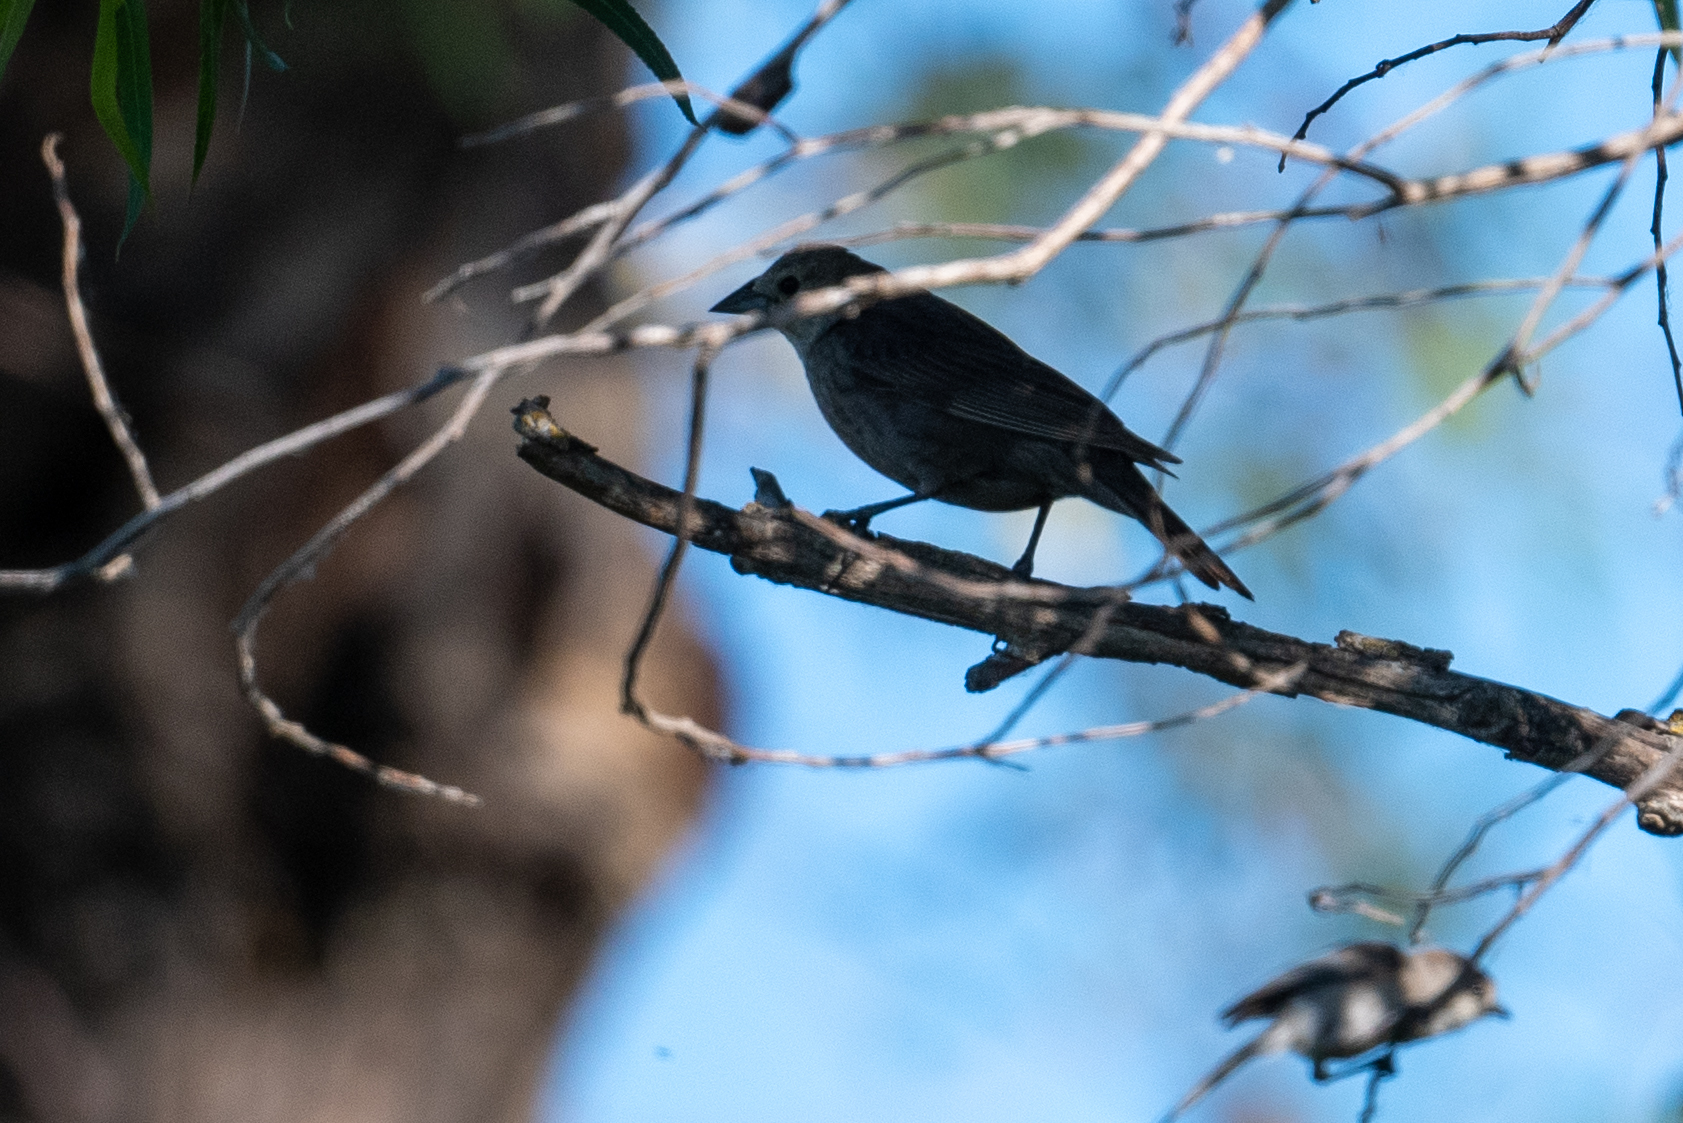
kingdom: Animalia
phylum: Chordata
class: Aves
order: Passeriformes
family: Icteridae
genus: Molothrus
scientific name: Molothrus ater
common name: Brown-headed cowbird
